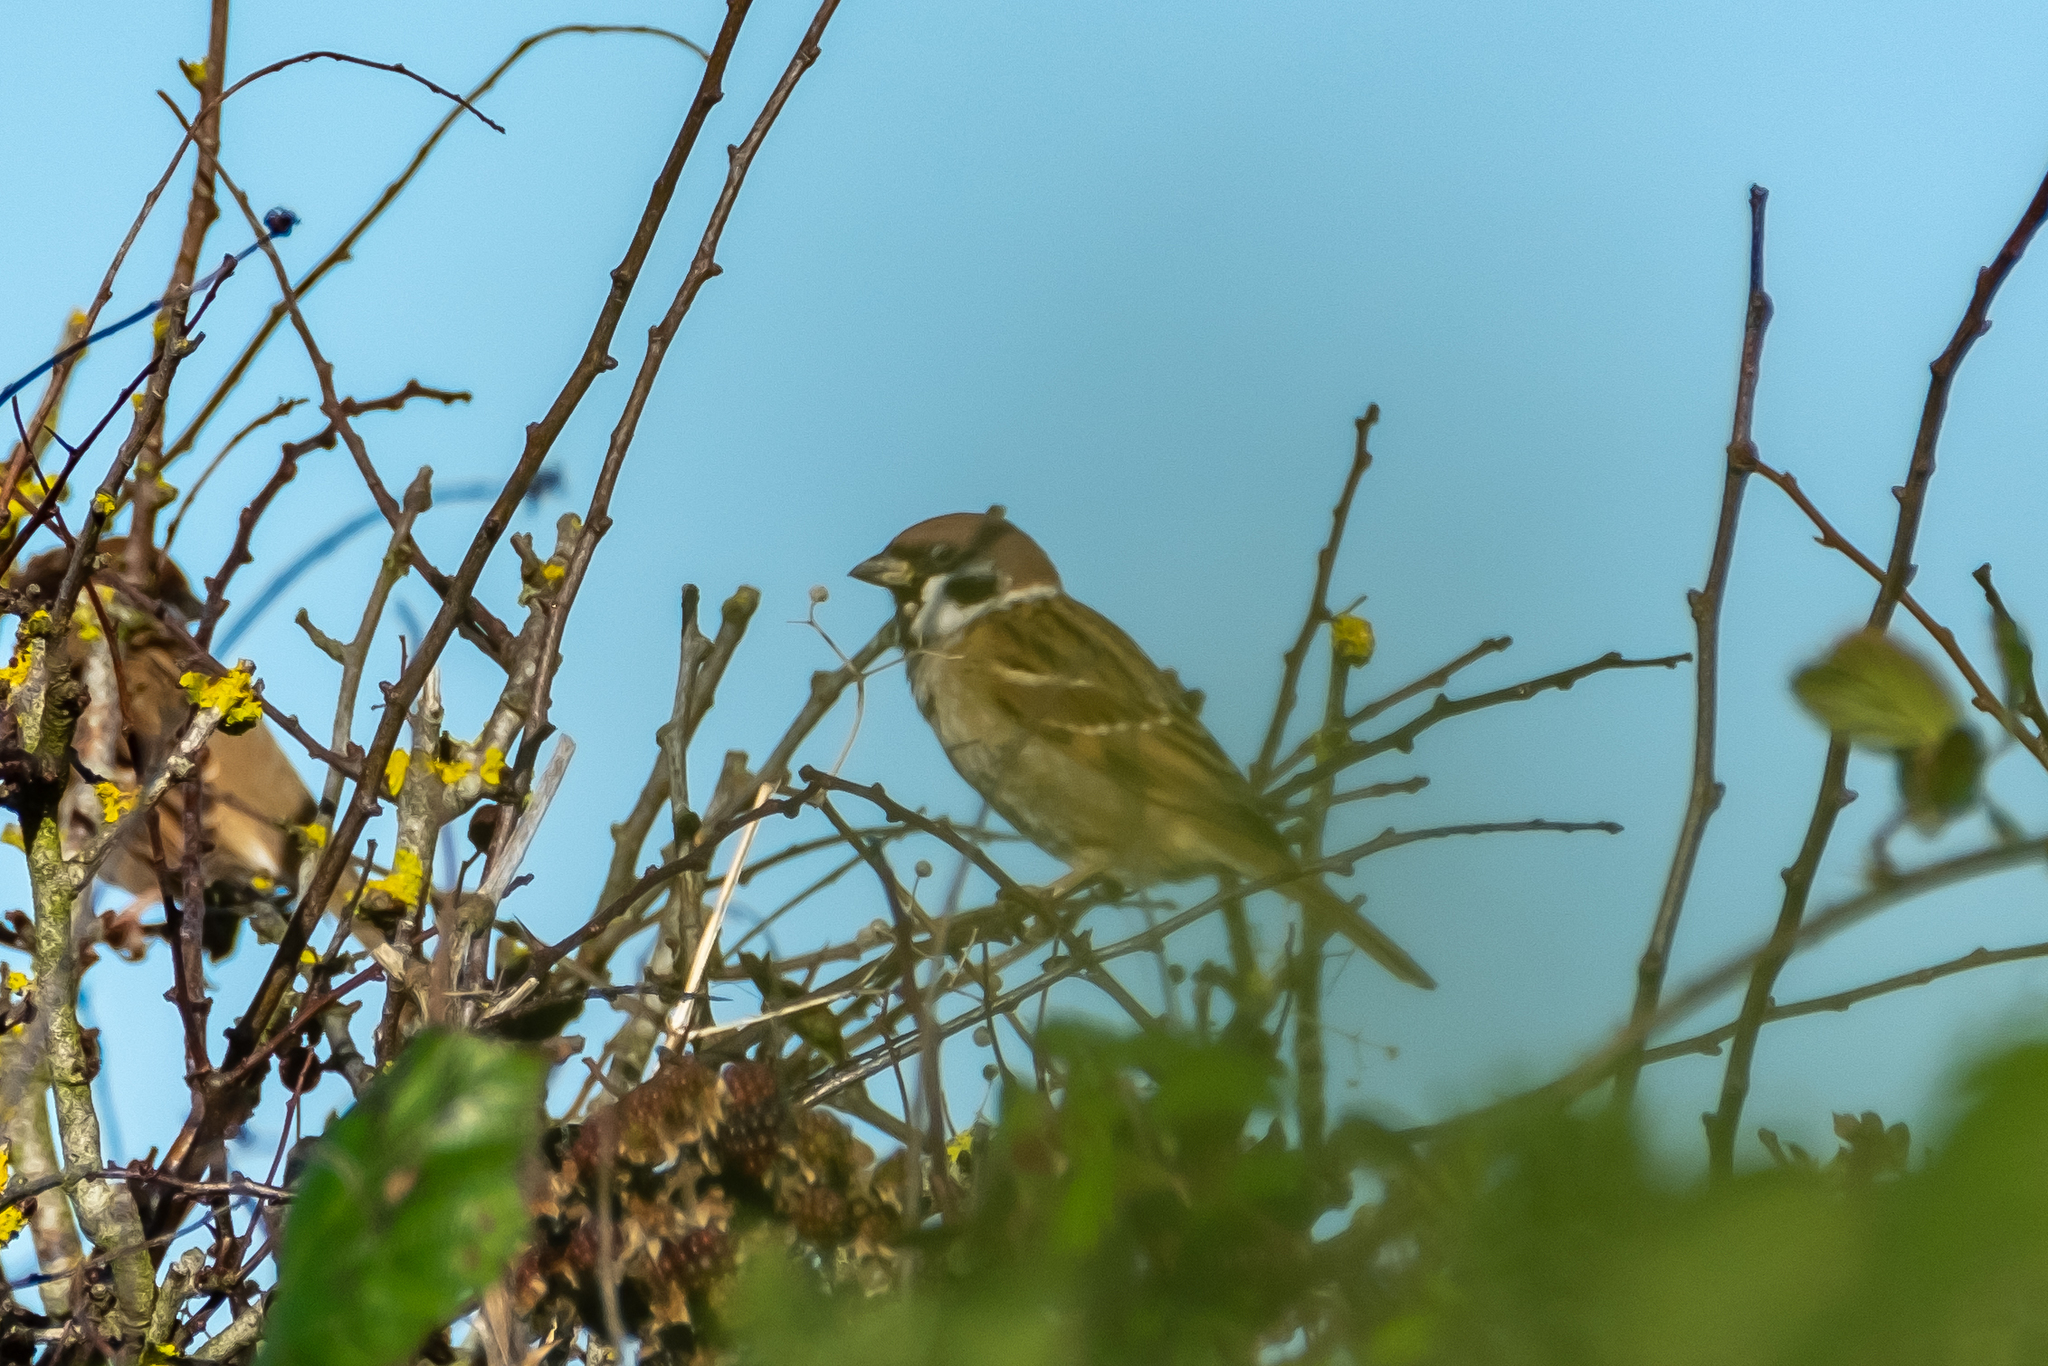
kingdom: Animalia
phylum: Chordata
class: Aves
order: Passeriformes
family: Passeridae
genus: Passer
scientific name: Passer montanus
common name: Eurasian tree sparrow
